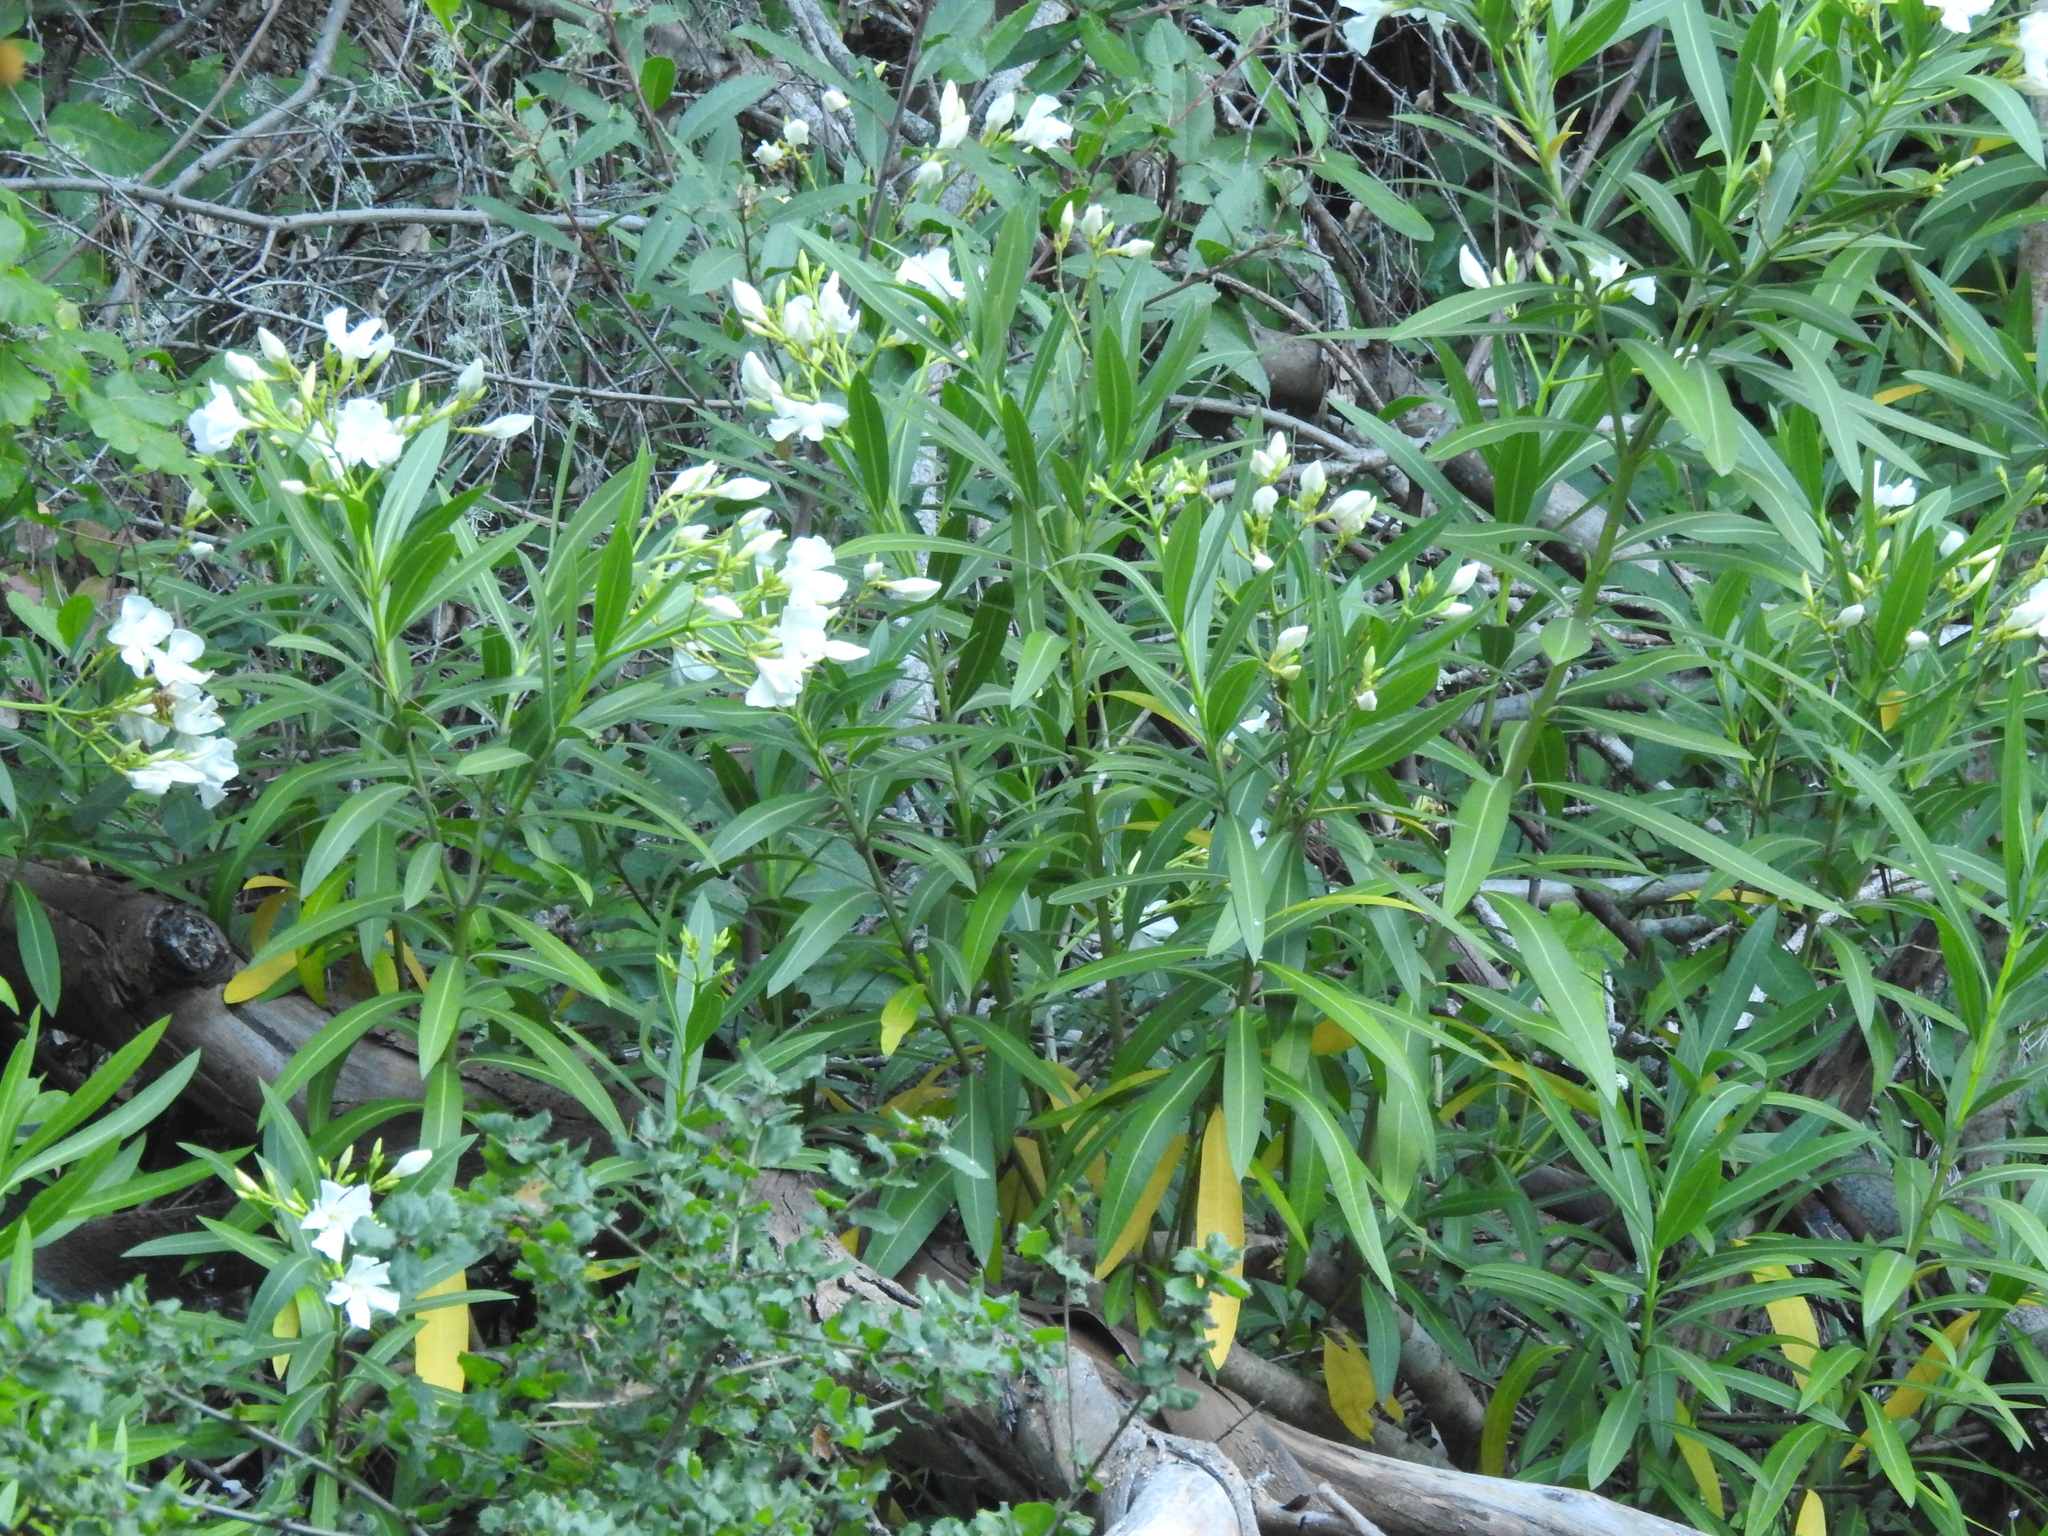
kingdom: Plantae
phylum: Tracheophyta
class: Magnoliopsida
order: Gentianales
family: Apocynaceae
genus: Nerium
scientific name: Nerium oleander
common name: Oleander
